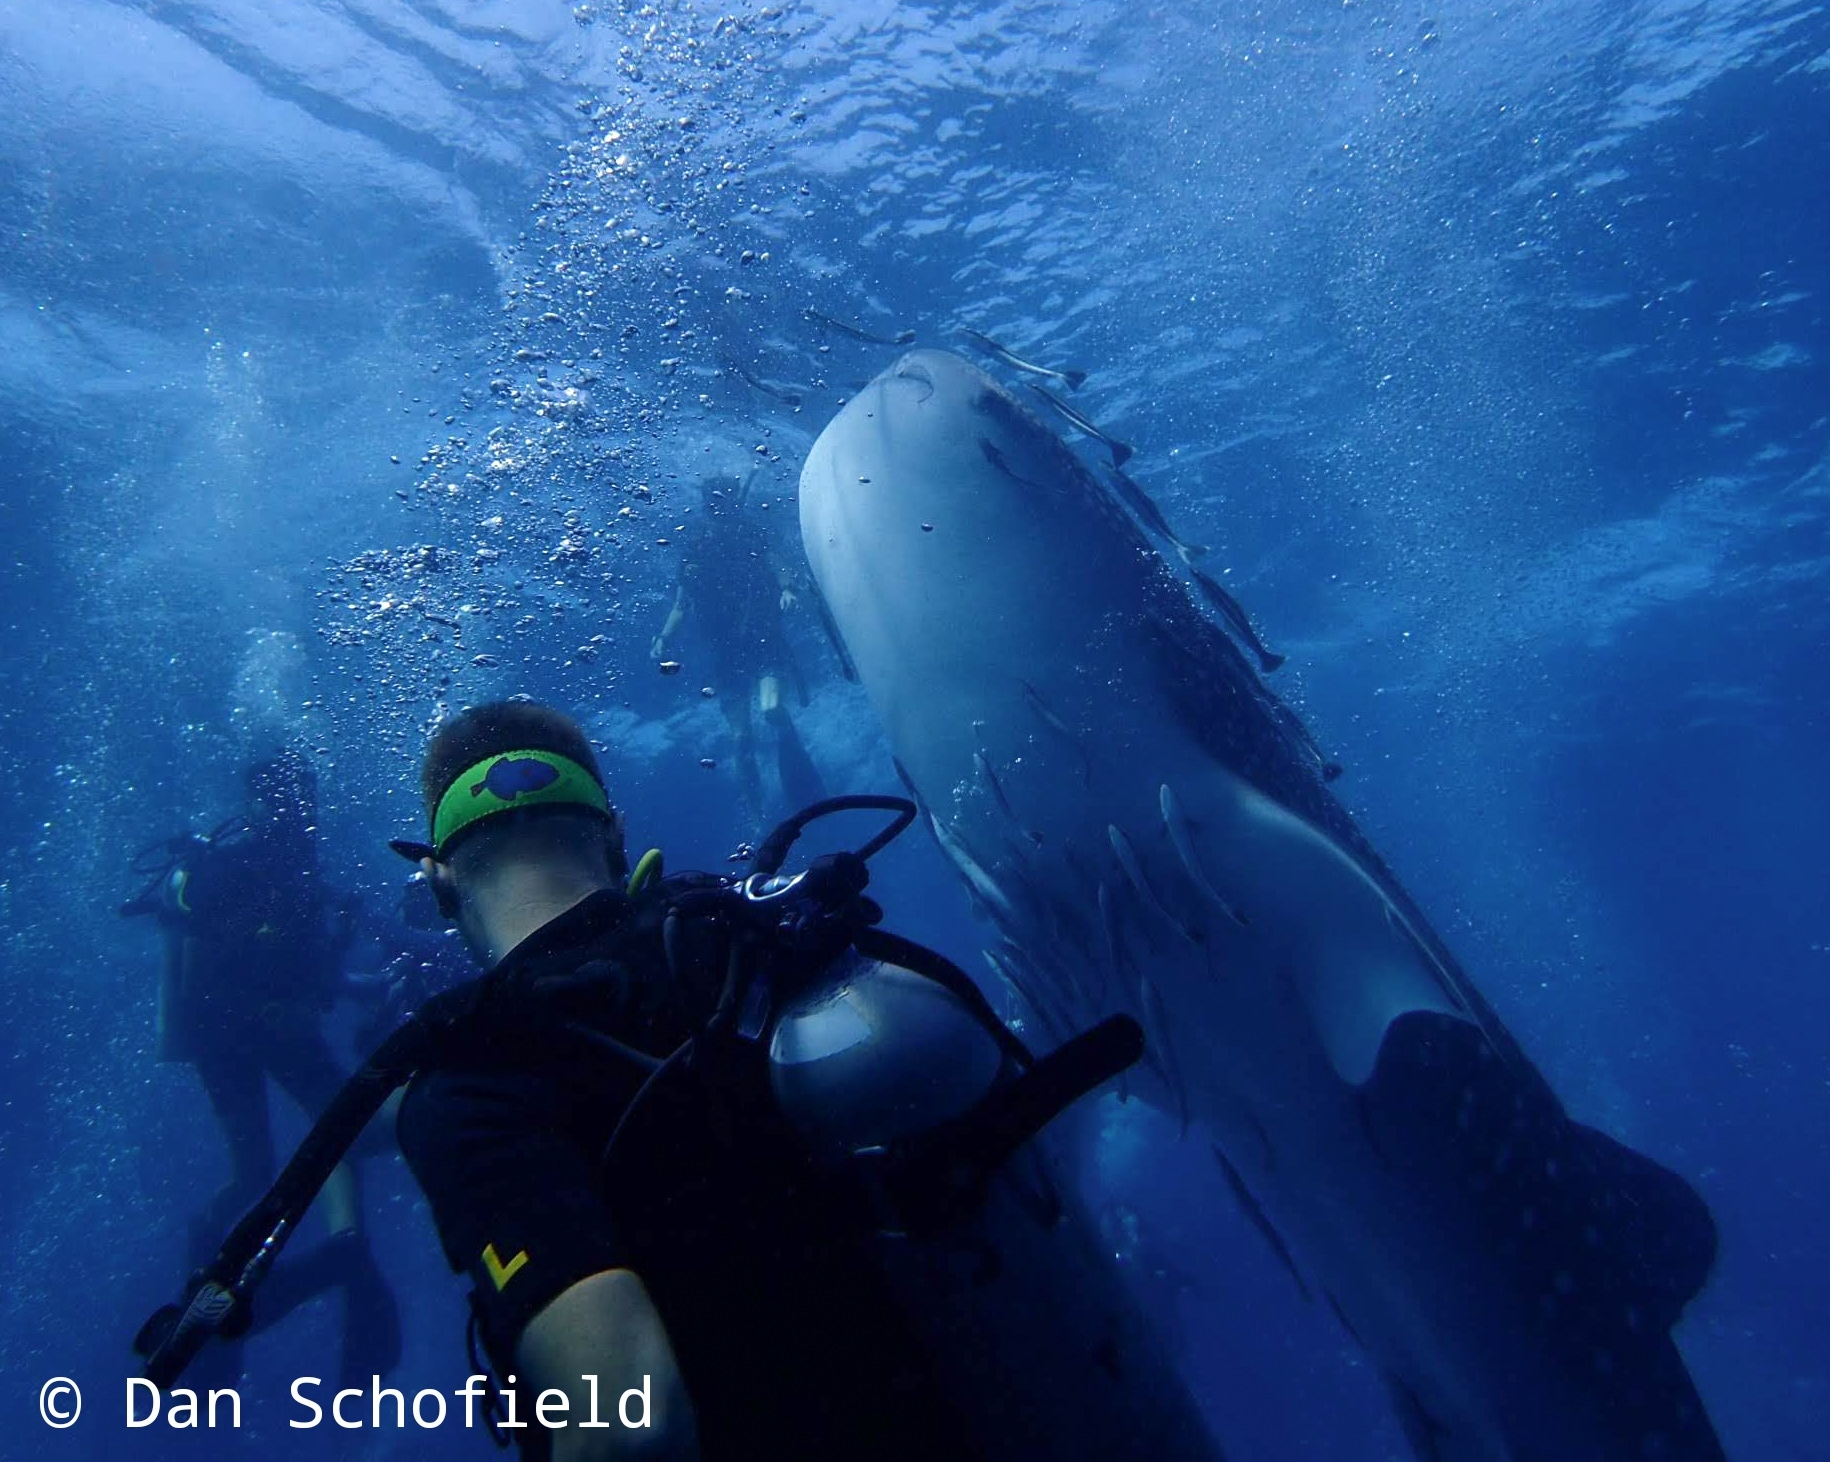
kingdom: Animalia
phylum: Chordata
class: Elasmobranchii
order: Orectolobiformes
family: Rhincodontidae
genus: Rhincodon
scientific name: Rhincodon typus
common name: Whale shark
